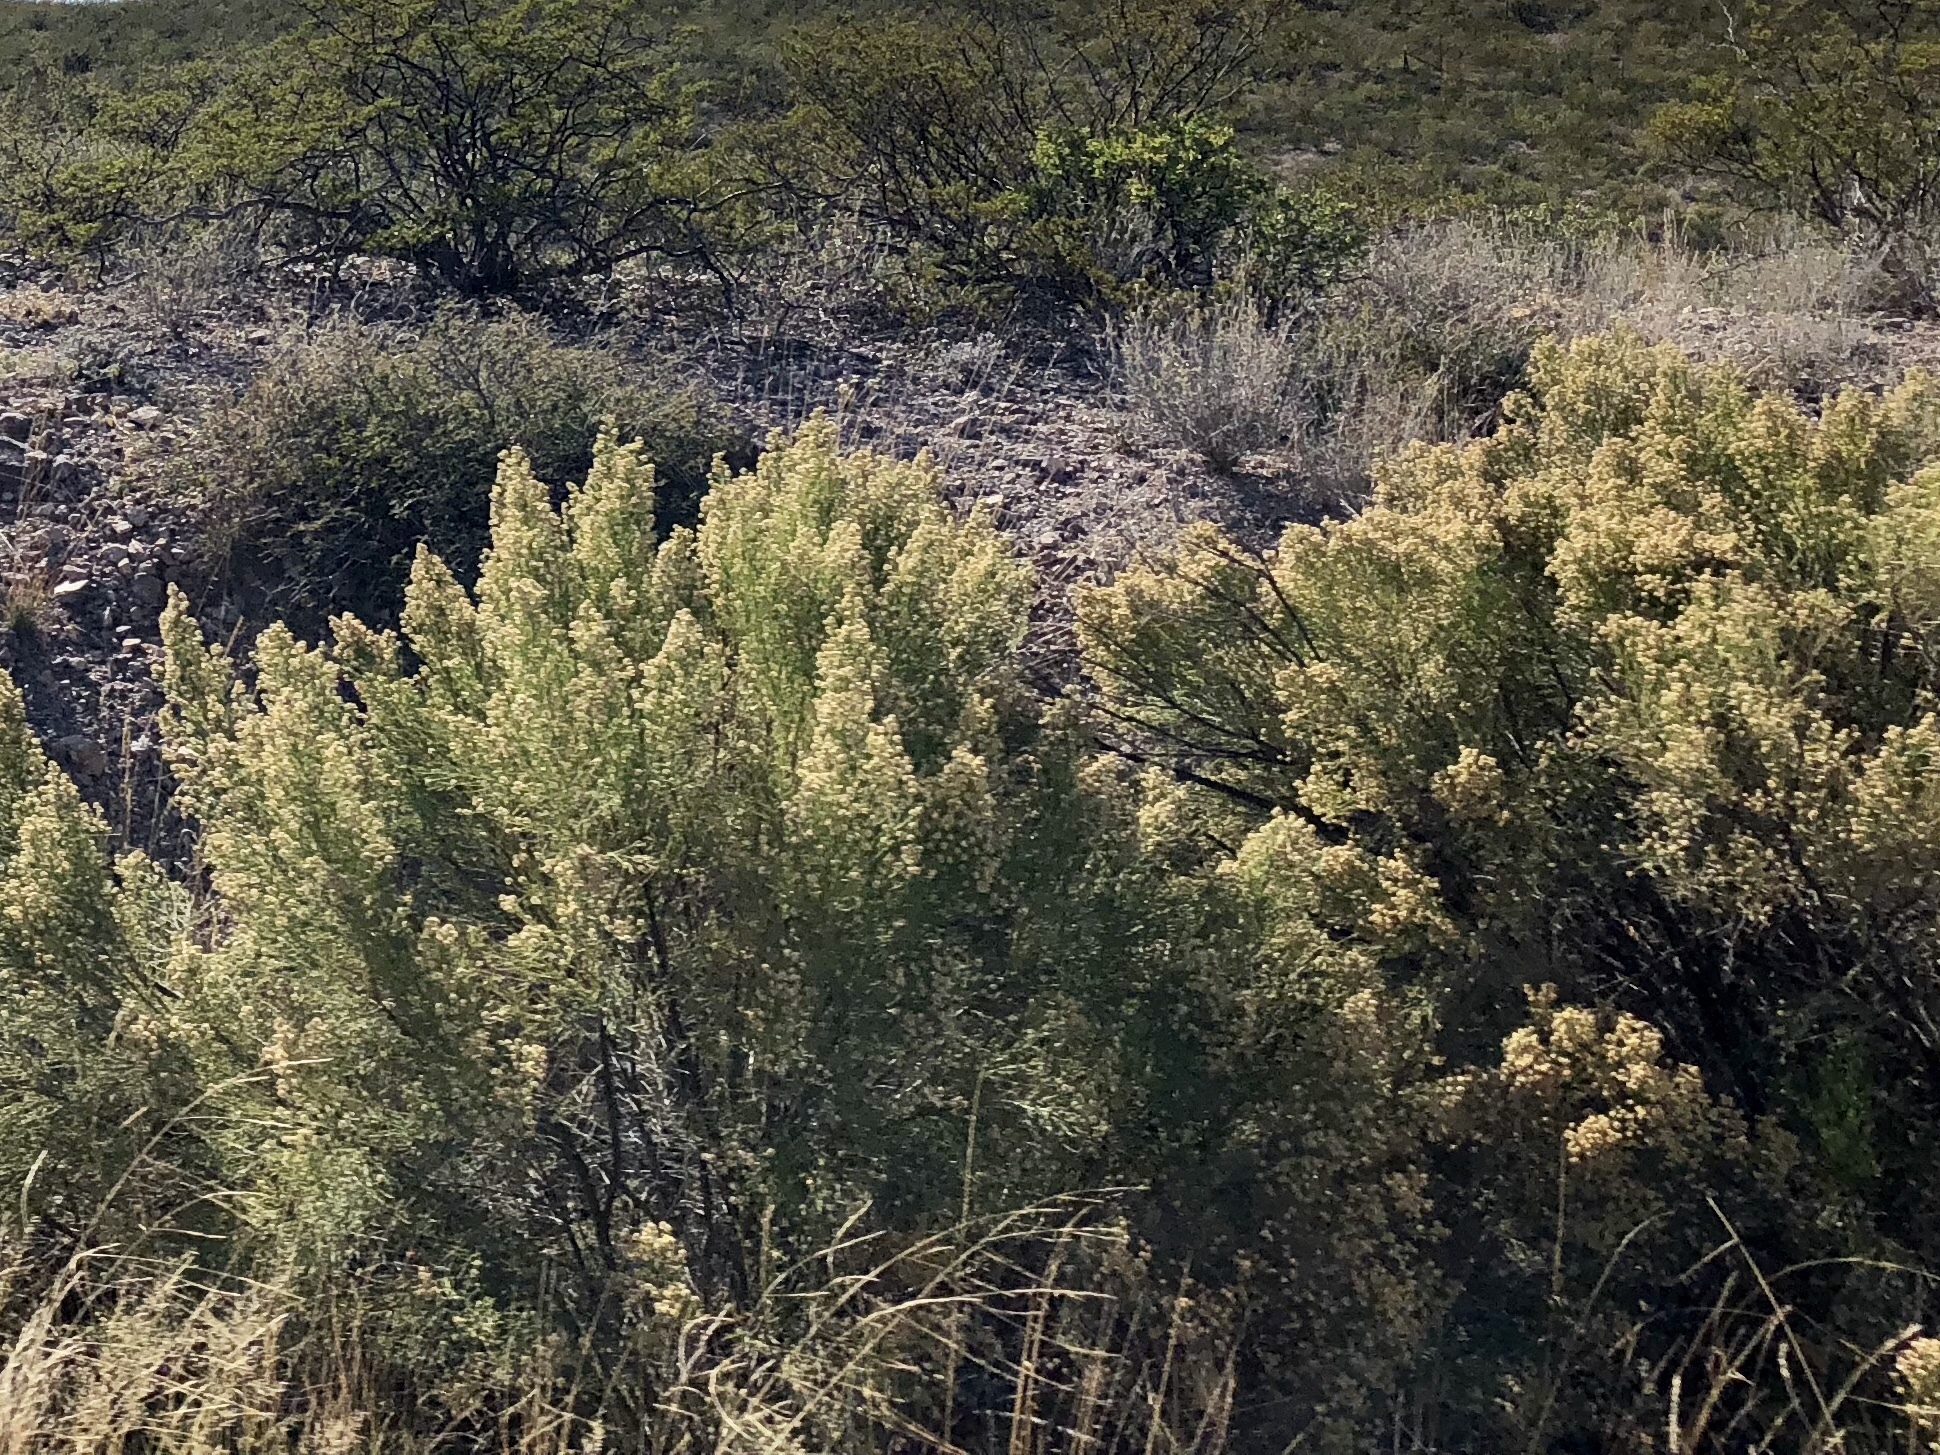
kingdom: Plantae
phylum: Tracheophyta
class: Magnoliopsida
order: Asterales
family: Asteraceae
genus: Baccharis
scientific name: Baccharis sarothroides
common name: Desert-broom
